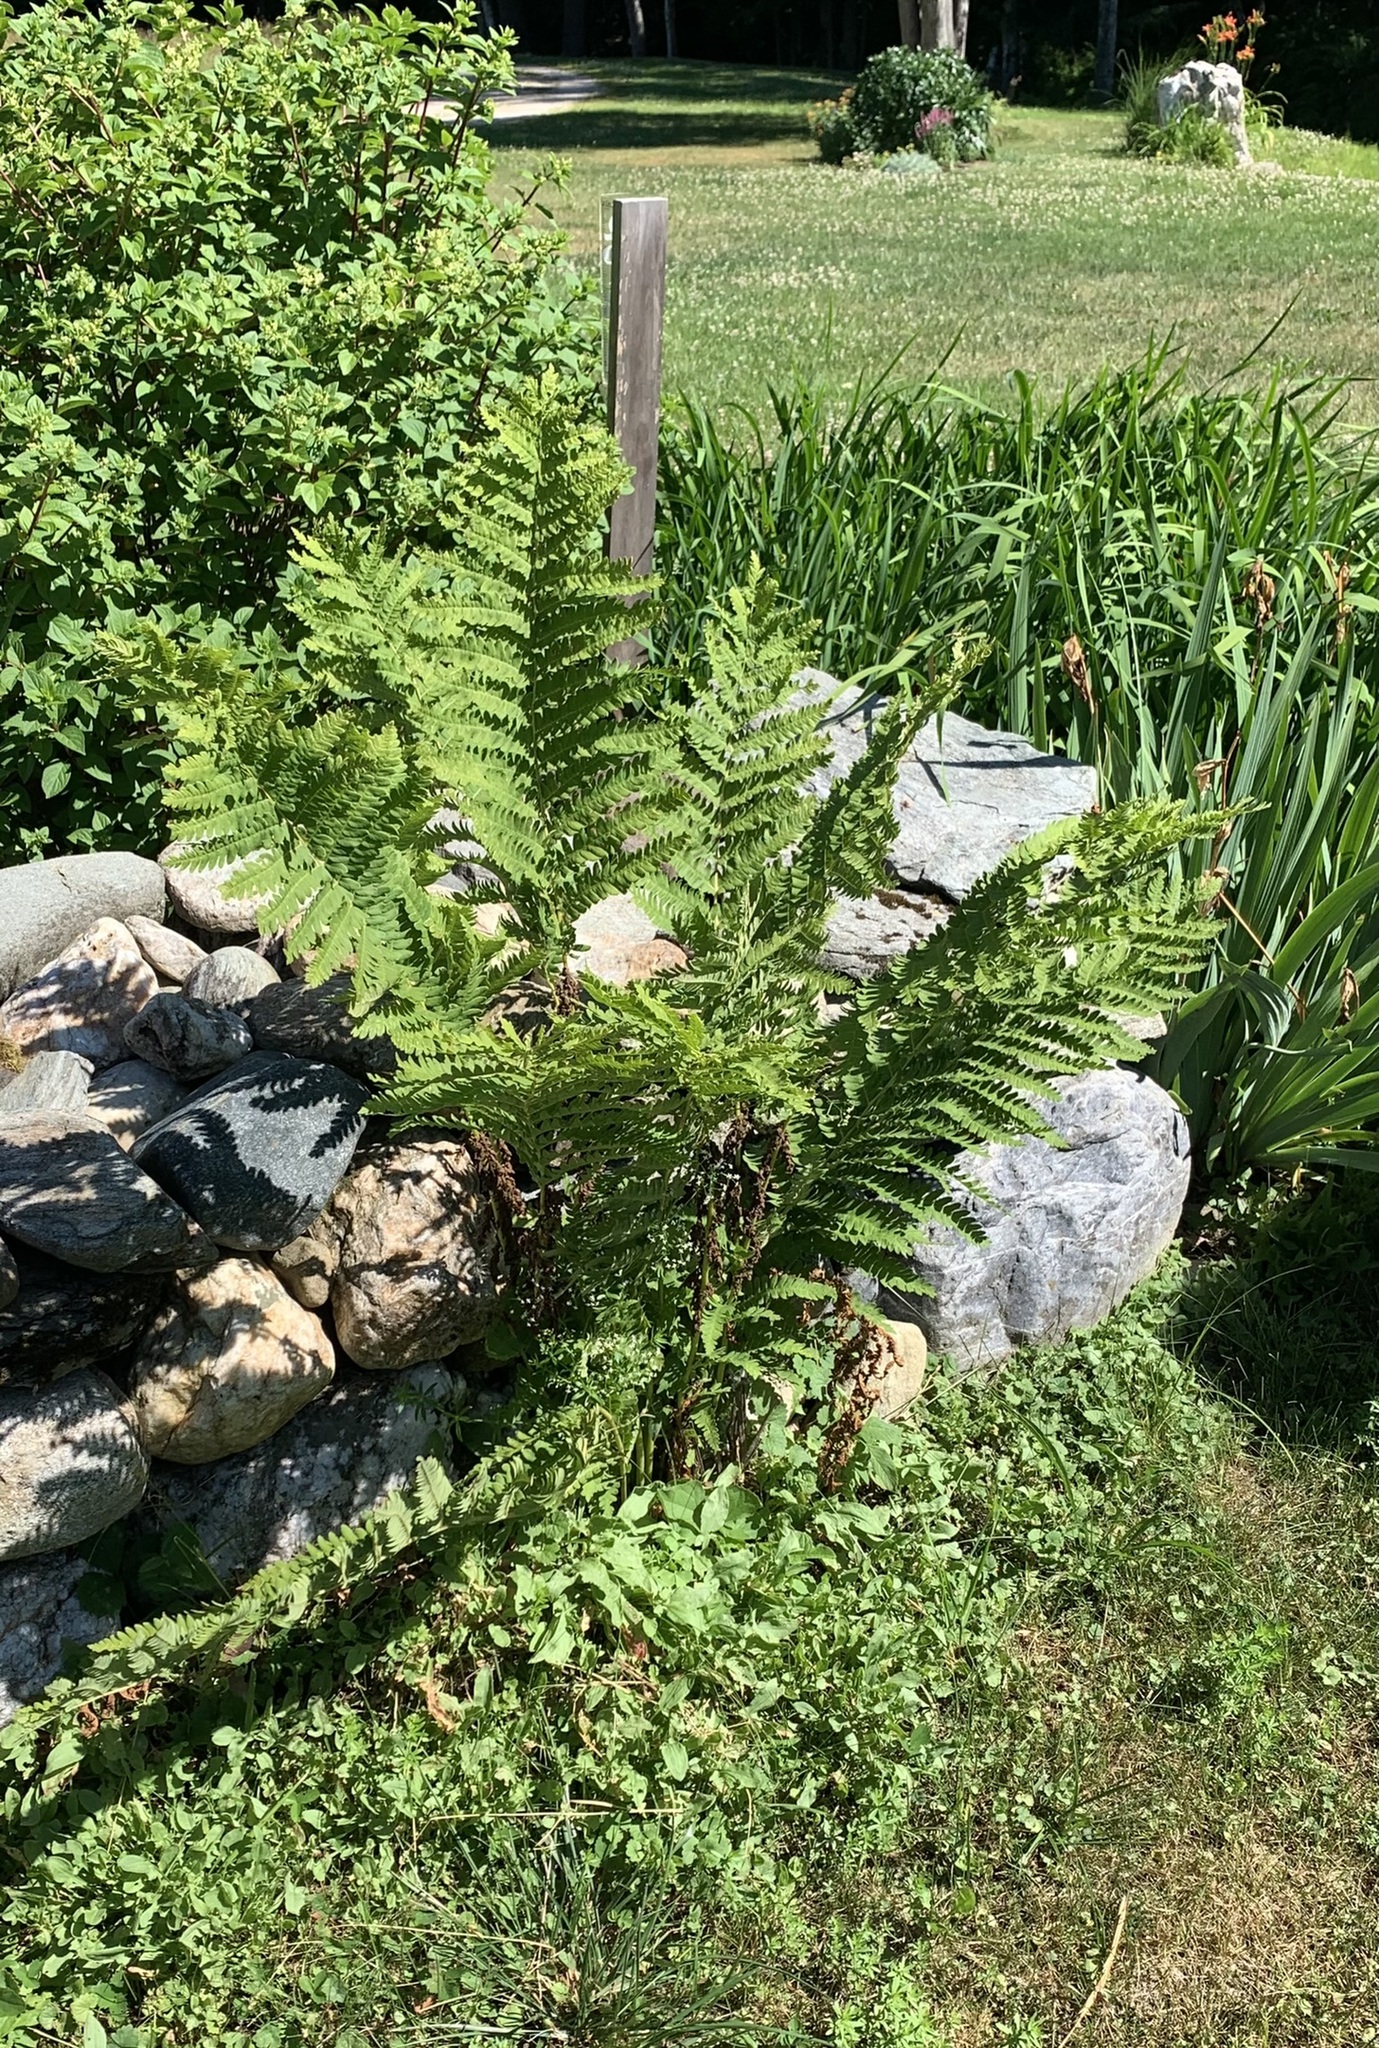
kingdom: Plantae
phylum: Tracheophyta
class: Polypodiopsida
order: Osmundales
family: Osmundaceae
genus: Claytosmunda
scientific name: Claytosmunda claytoniana
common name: Clayton's fern
